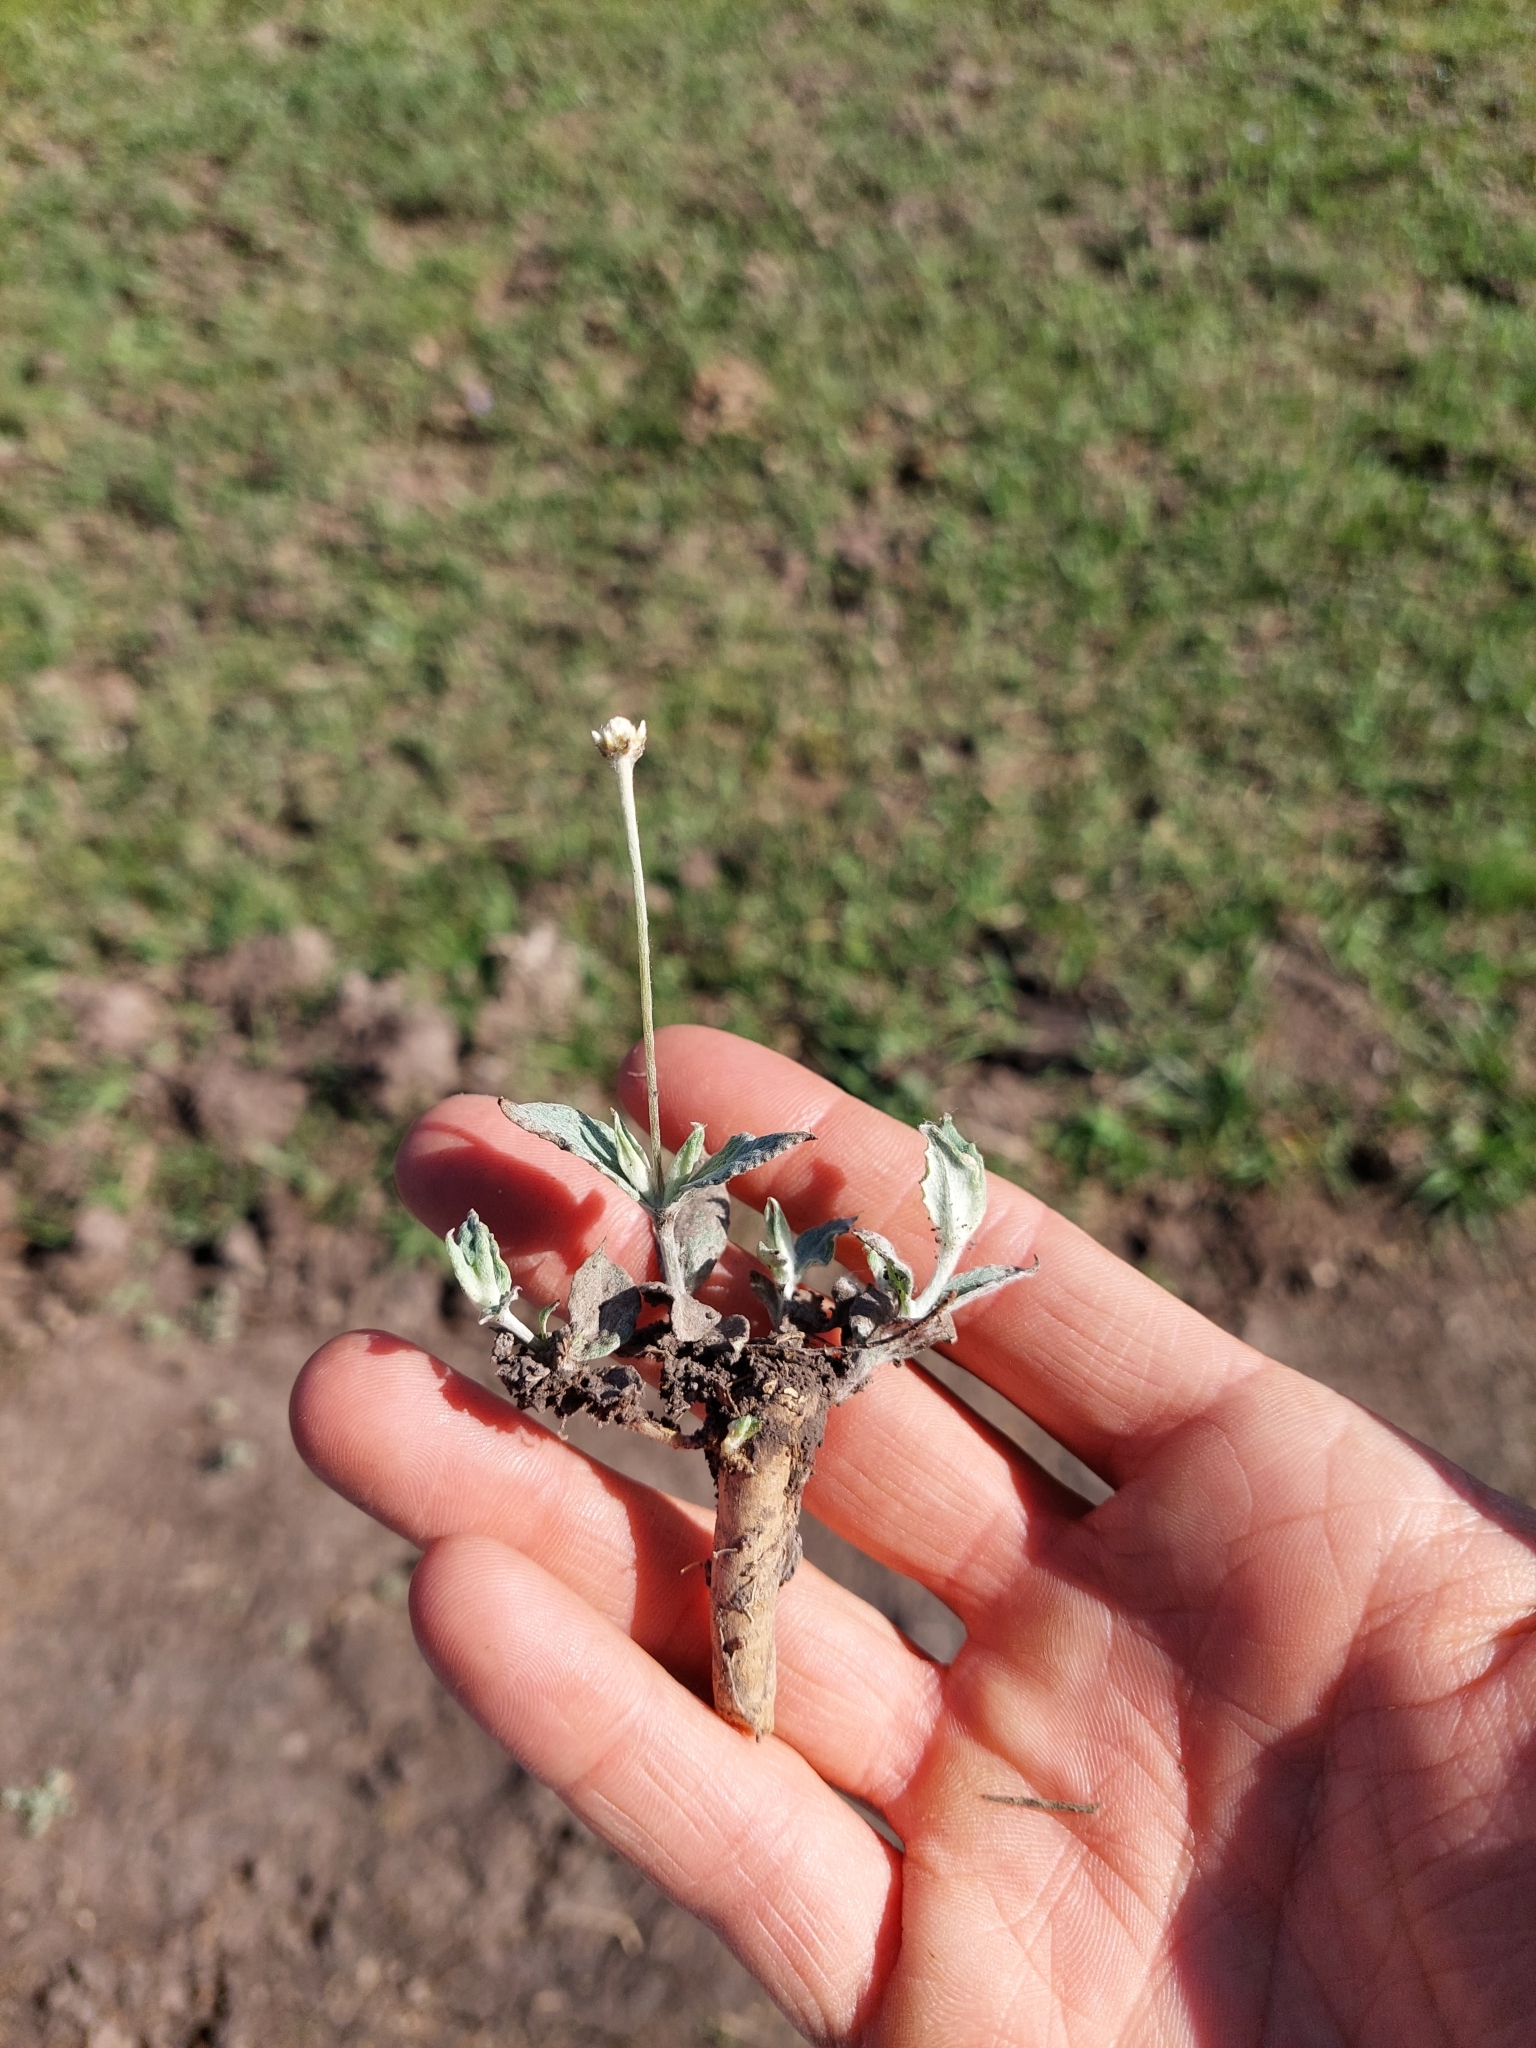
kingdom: Plantae
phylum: Tracheophyta
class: Magnoliopsida
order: Caryophyllales
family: Amaranthaceae
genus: Pfaffia
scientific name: Pfaffia gnaphalioides
